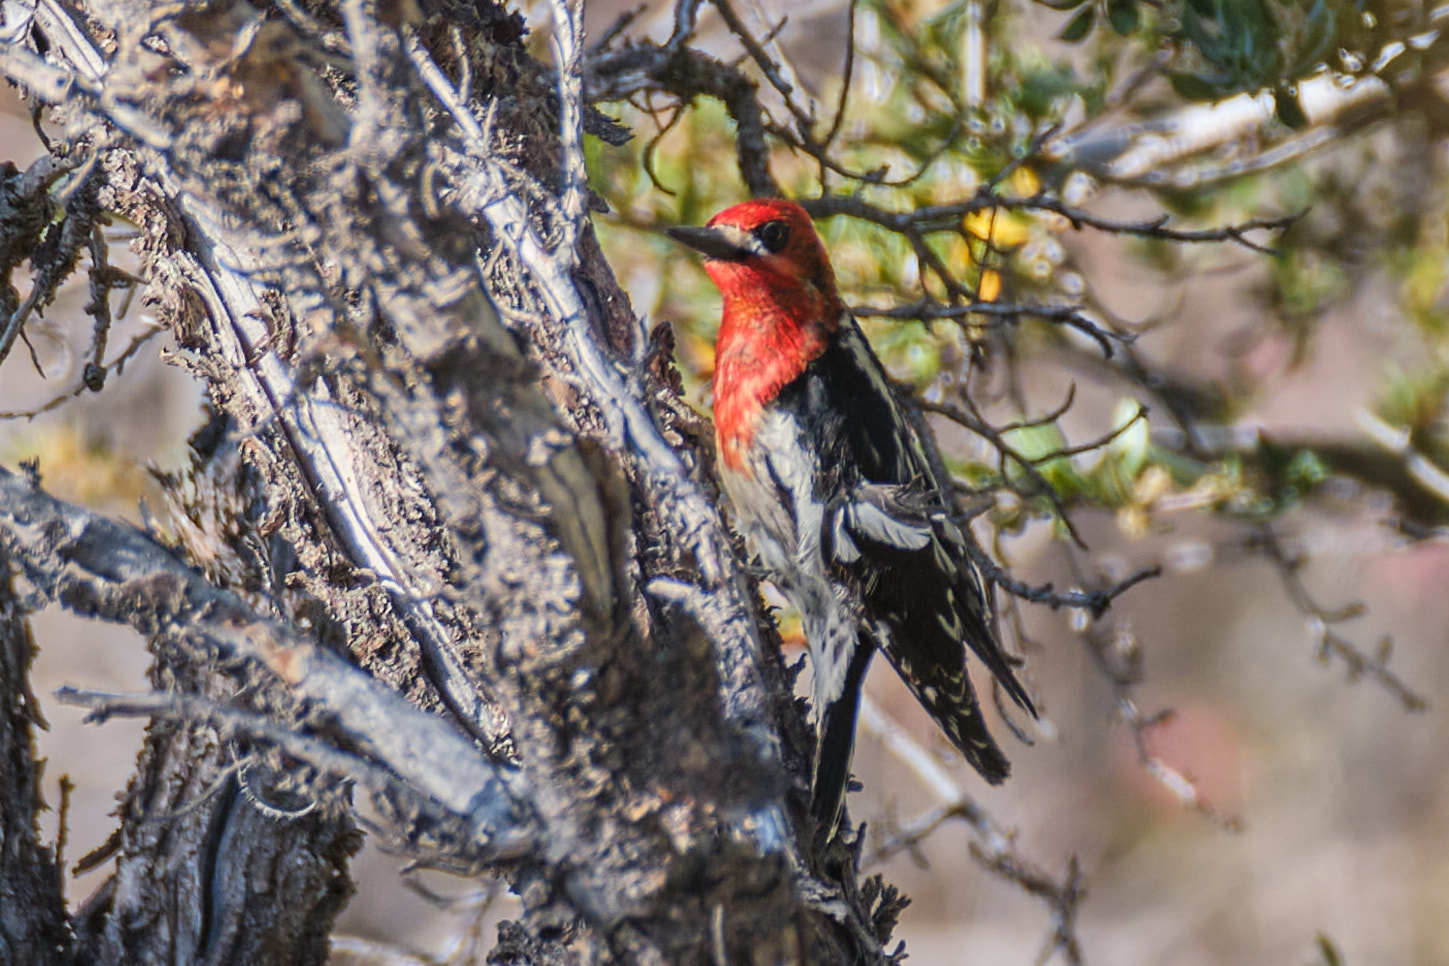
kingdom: Animalia
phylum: Chordata
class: Aves
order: Piciformes
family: Picidae
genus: Sphyrapicus
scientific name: Sphyrapicus ruber
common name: Red-breasted sapsucker
